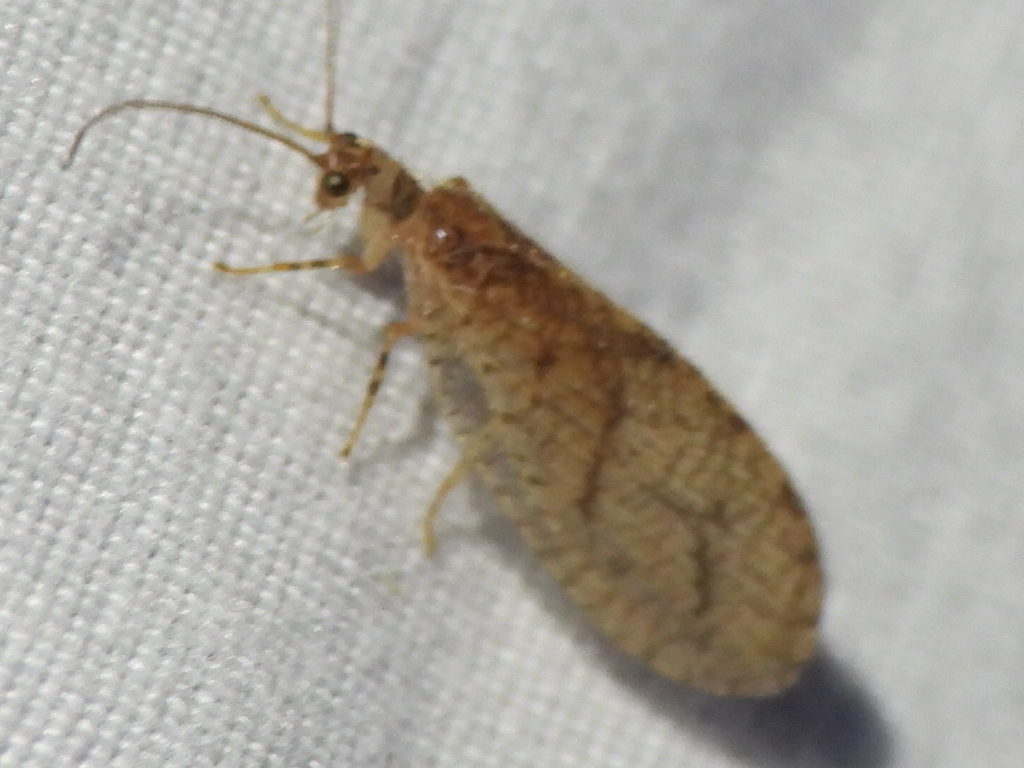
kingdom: Animalia
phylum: Arthropoda
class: Insecta
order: Neuroptera
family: Hemerobiidae
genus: Micromus
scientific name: Micromus posticus
